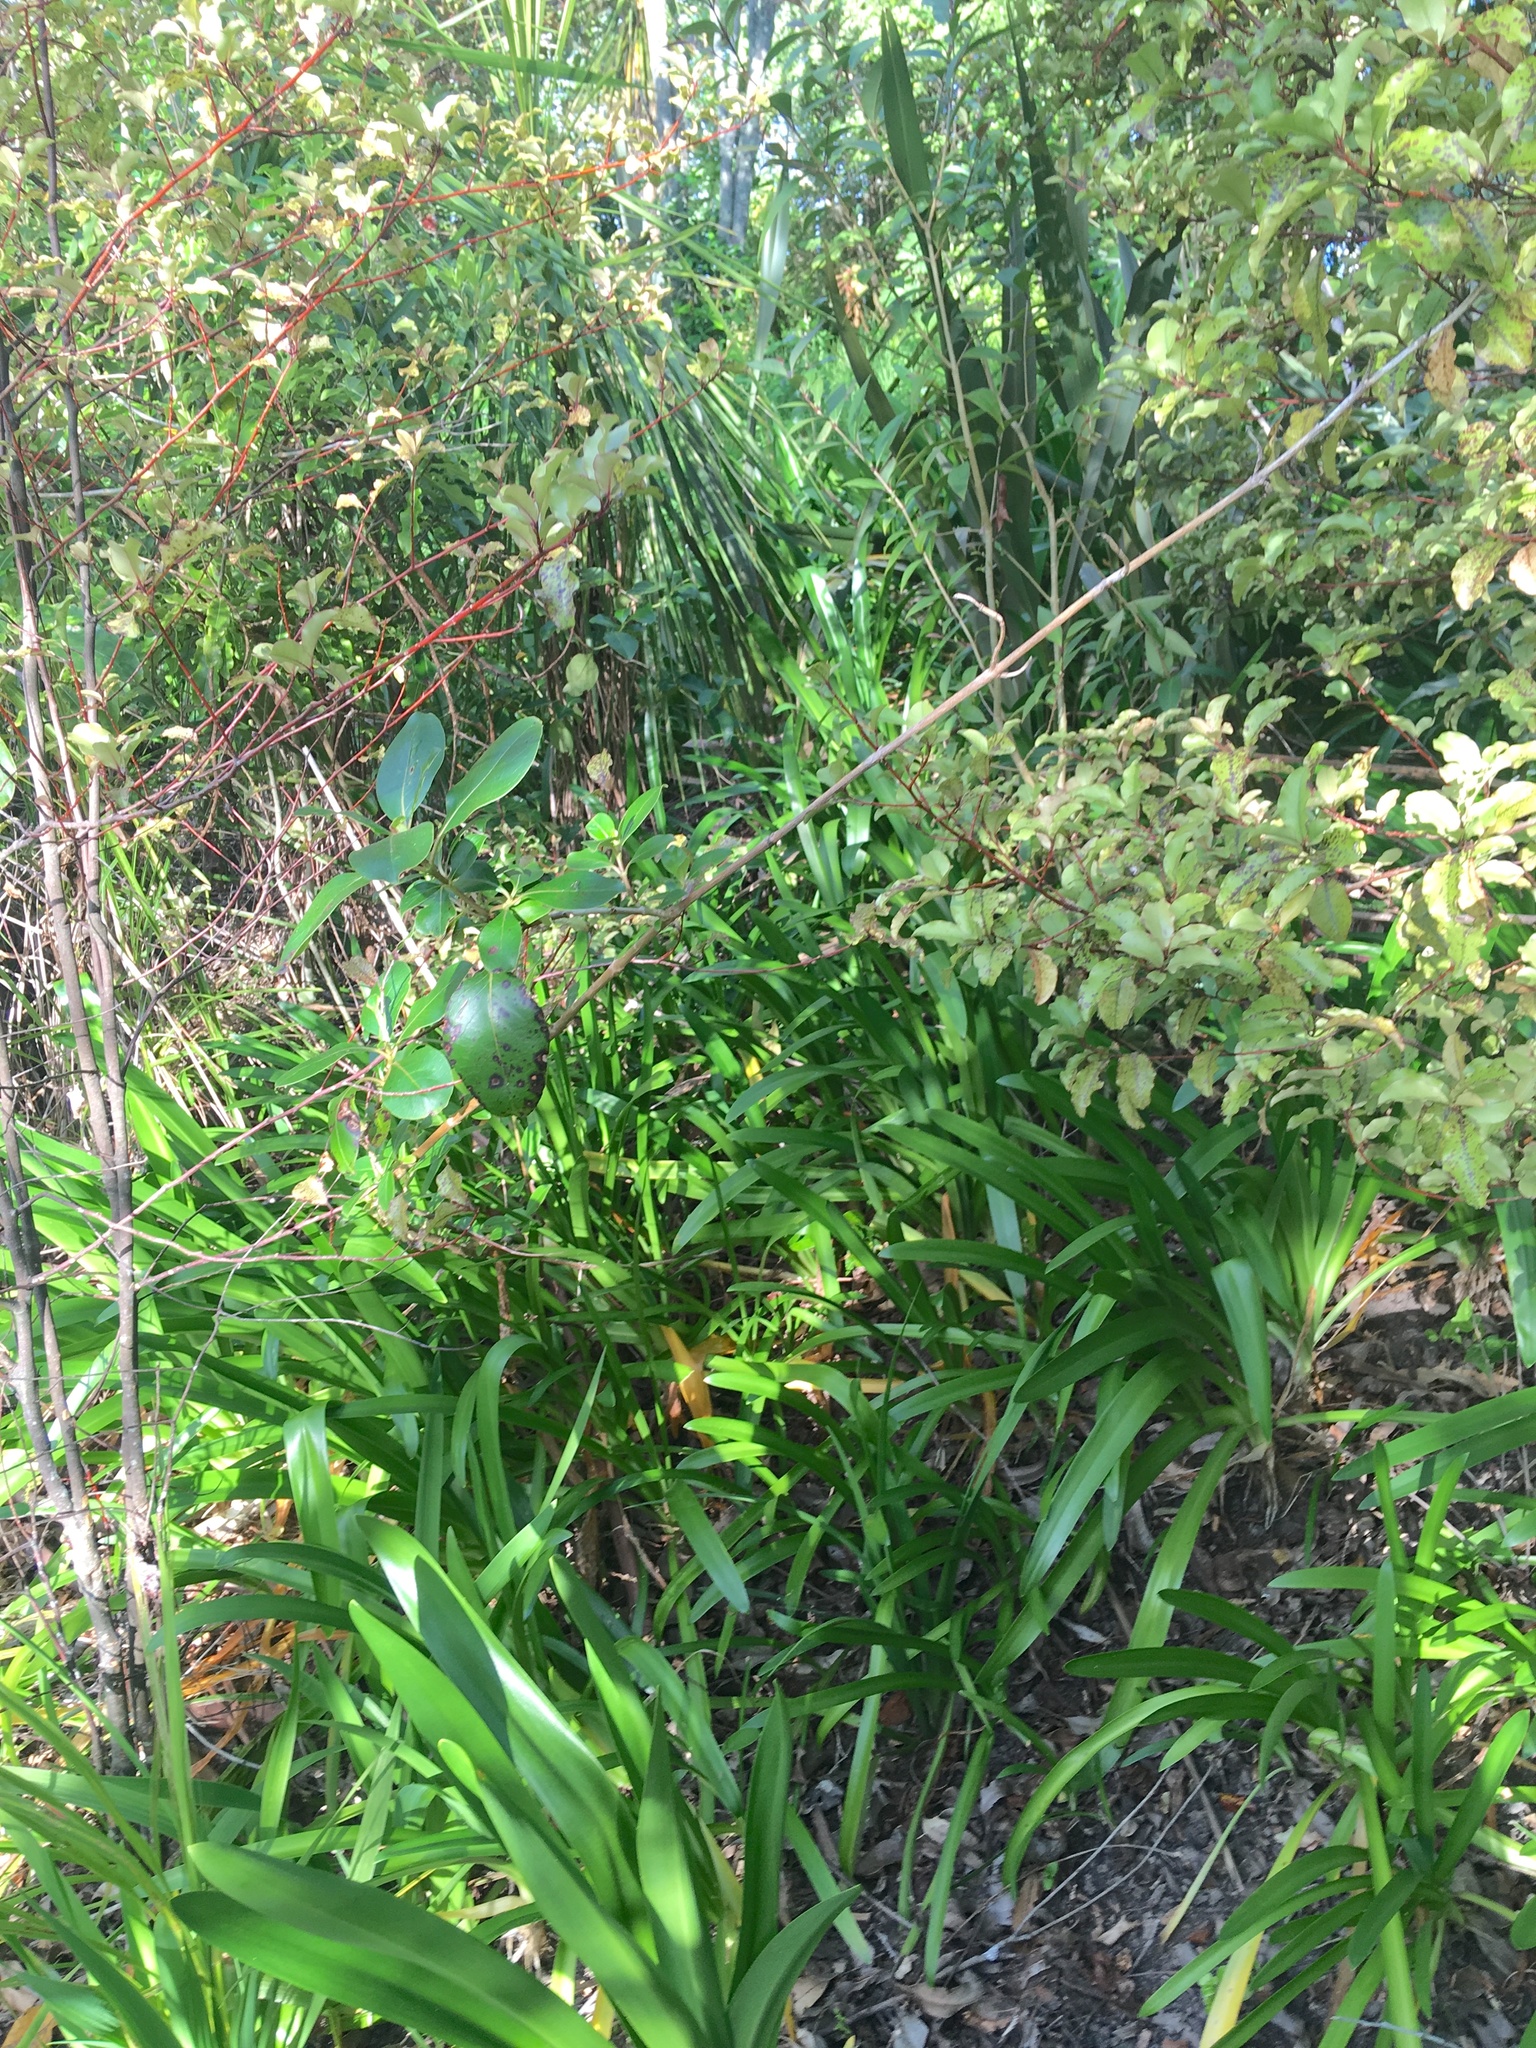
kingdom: Plantae
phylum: Tracheophyta
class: Liliopsida
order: Asparagales
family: Amaryllidaceae
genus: Agapanthus
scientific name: Agapanthus praecox
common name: African-lily
